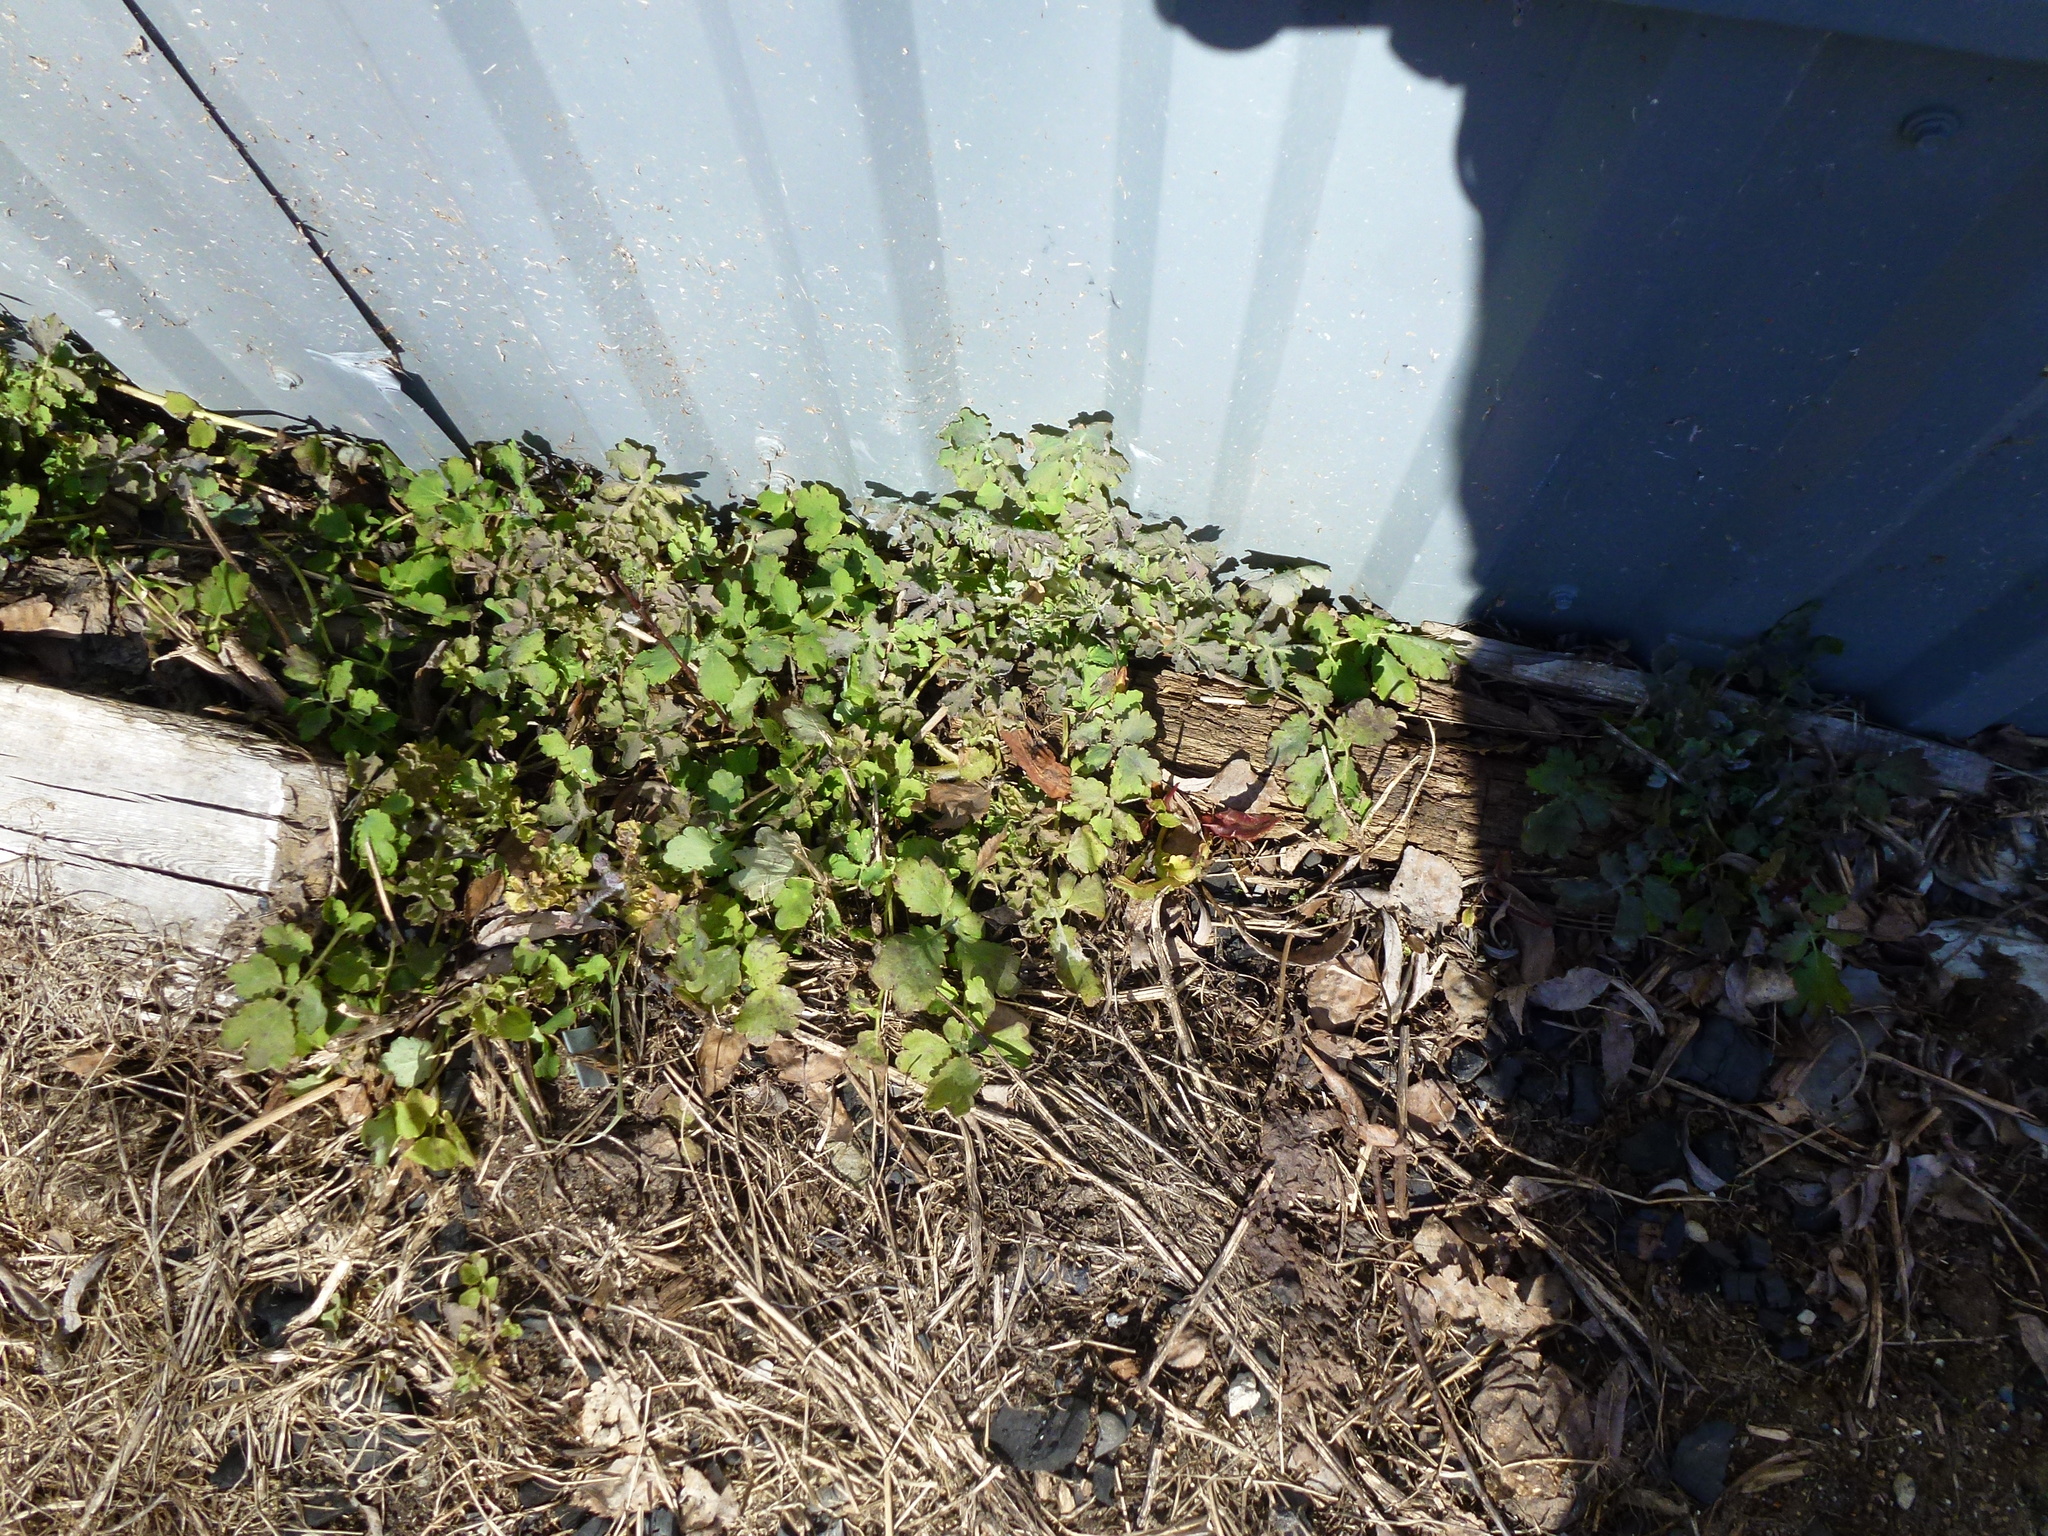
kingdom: Plantae
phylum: Tracheophyta
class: Magnoliopsida
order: Ranunculales
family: Papaveraceae
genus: Chelidonium
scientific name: Chelidonium majus
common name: Greater celandine
